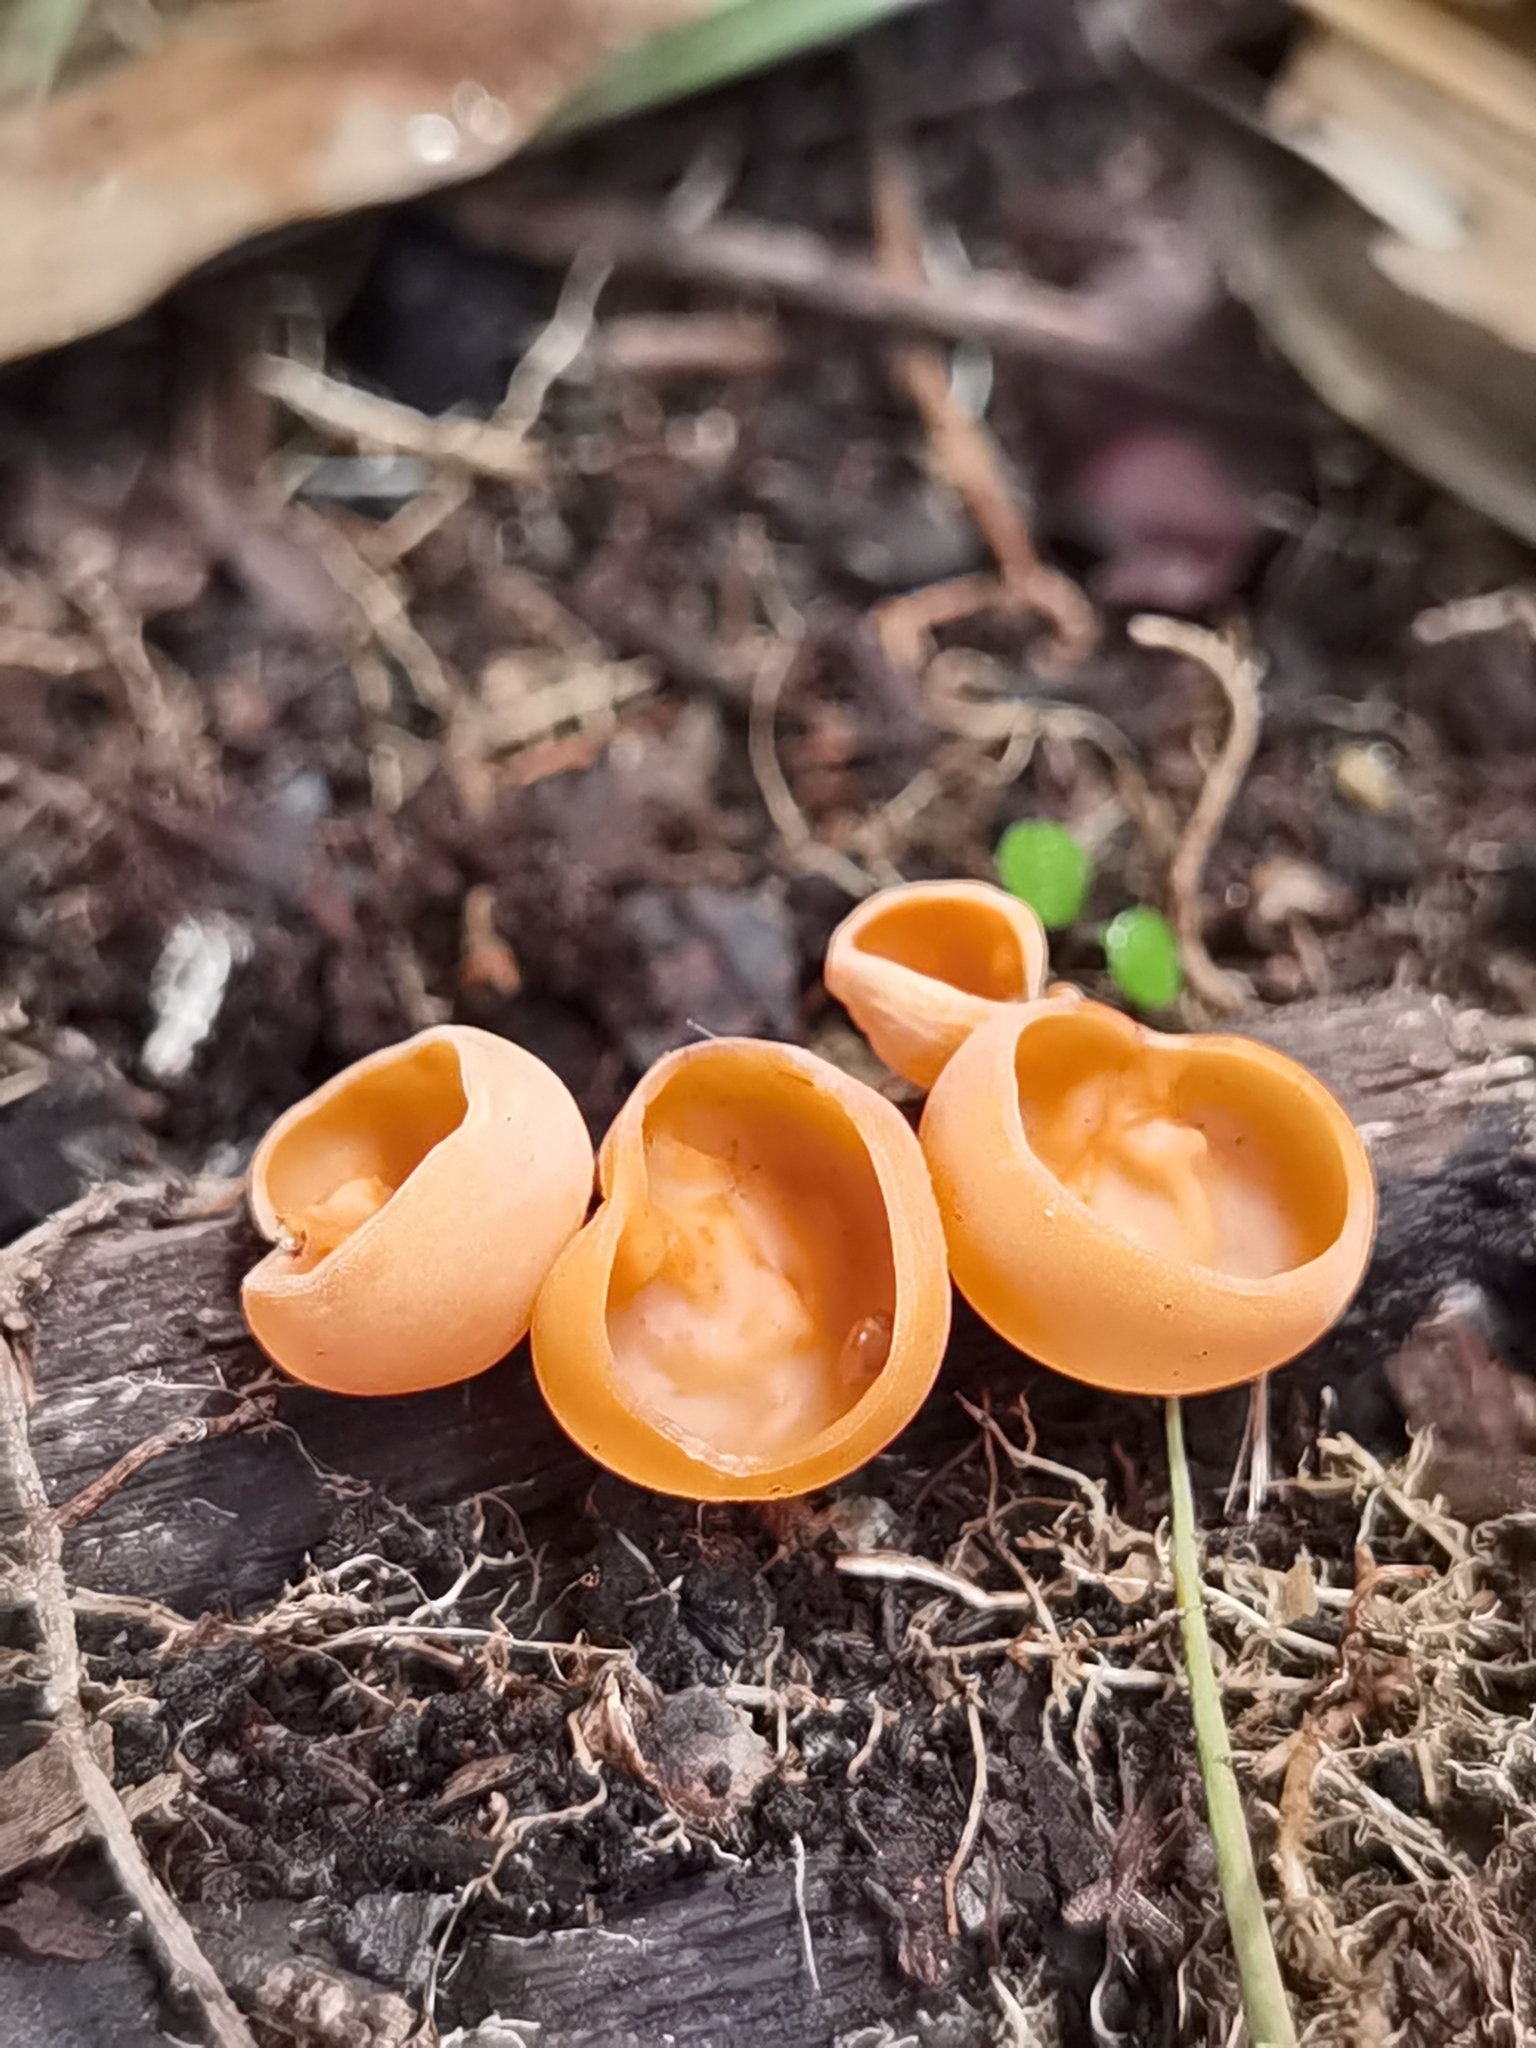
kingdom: Fungi
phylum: Ascomycota
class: Pezizomycetes
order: Pezizales
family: Sarcoscyphaceae
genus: Cookeina
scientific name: Cookeina venezuelae
